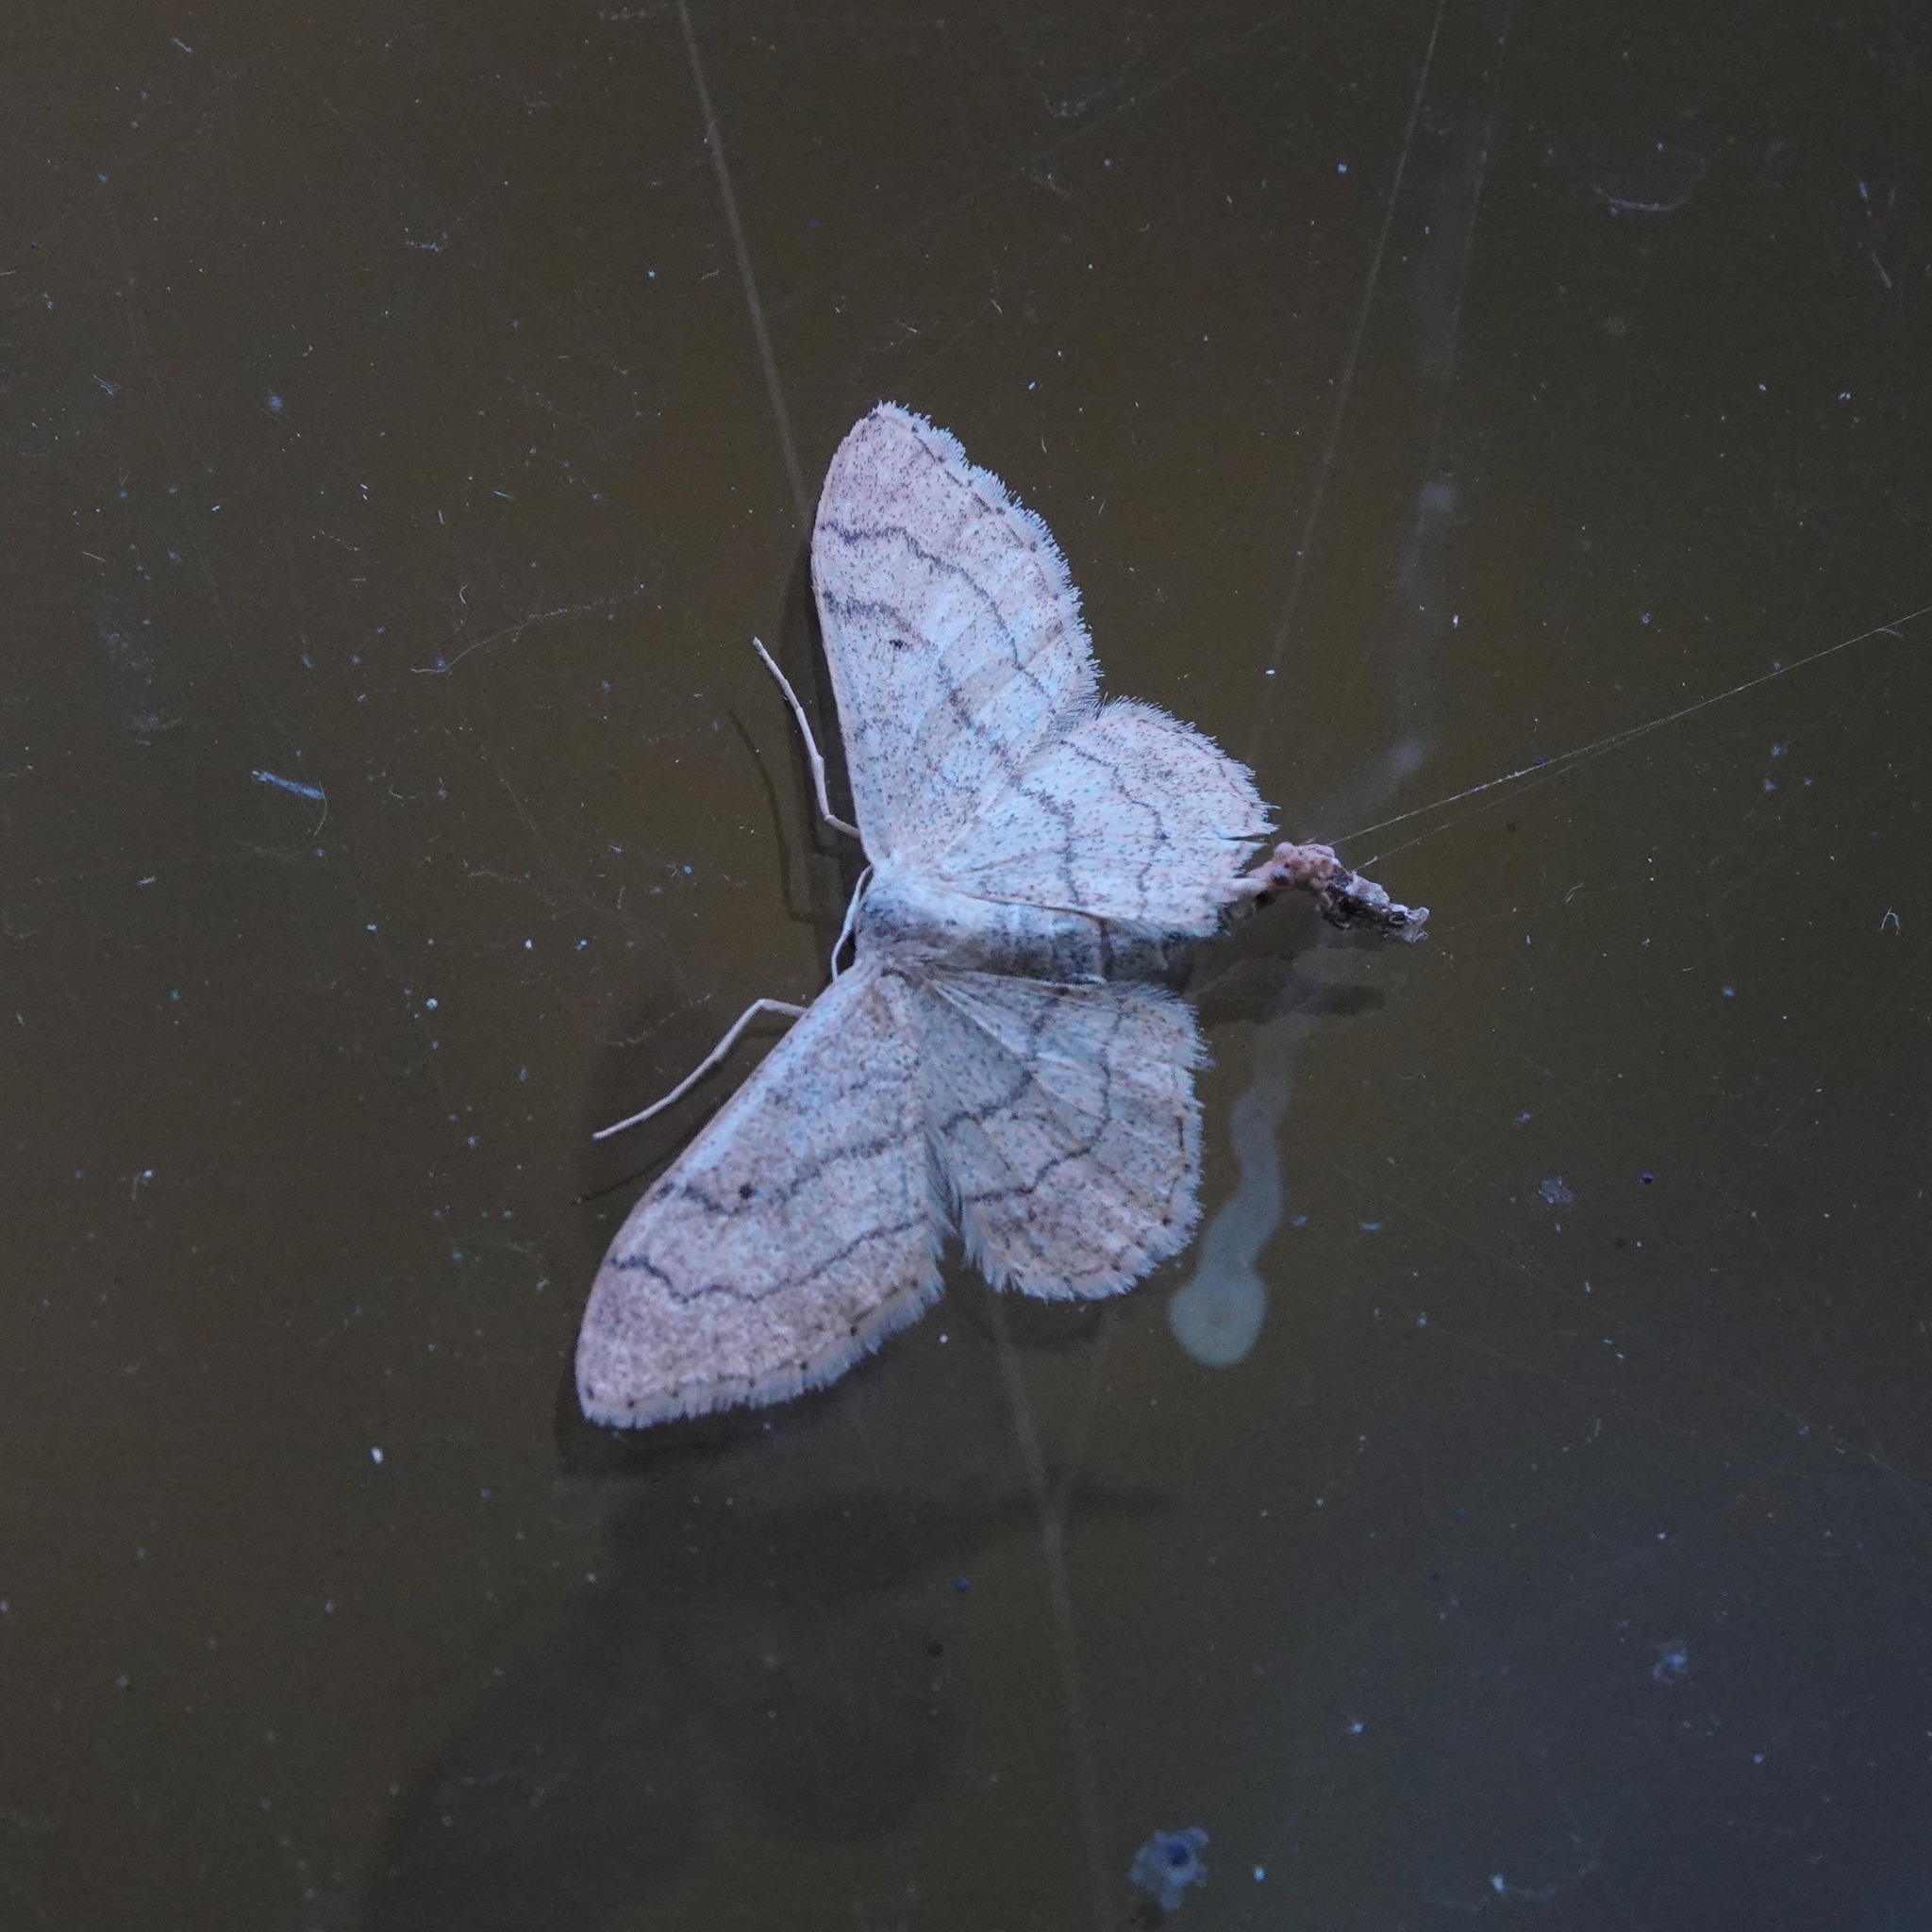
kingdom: Animalia
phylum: Arthropoda
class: Insecta
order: Lepidoptera
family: Geometridae
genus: Idaea
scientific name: Idaea aversata
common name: Riband wave
